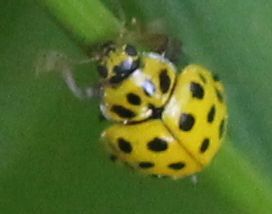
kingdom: Animalia
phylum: Arthropoda
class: Insecta
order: Coleoptera
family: Coccinellidae
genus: Psyllobora
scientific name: Psyllobora vigintiduopunctata
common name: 22-spot ladybird
